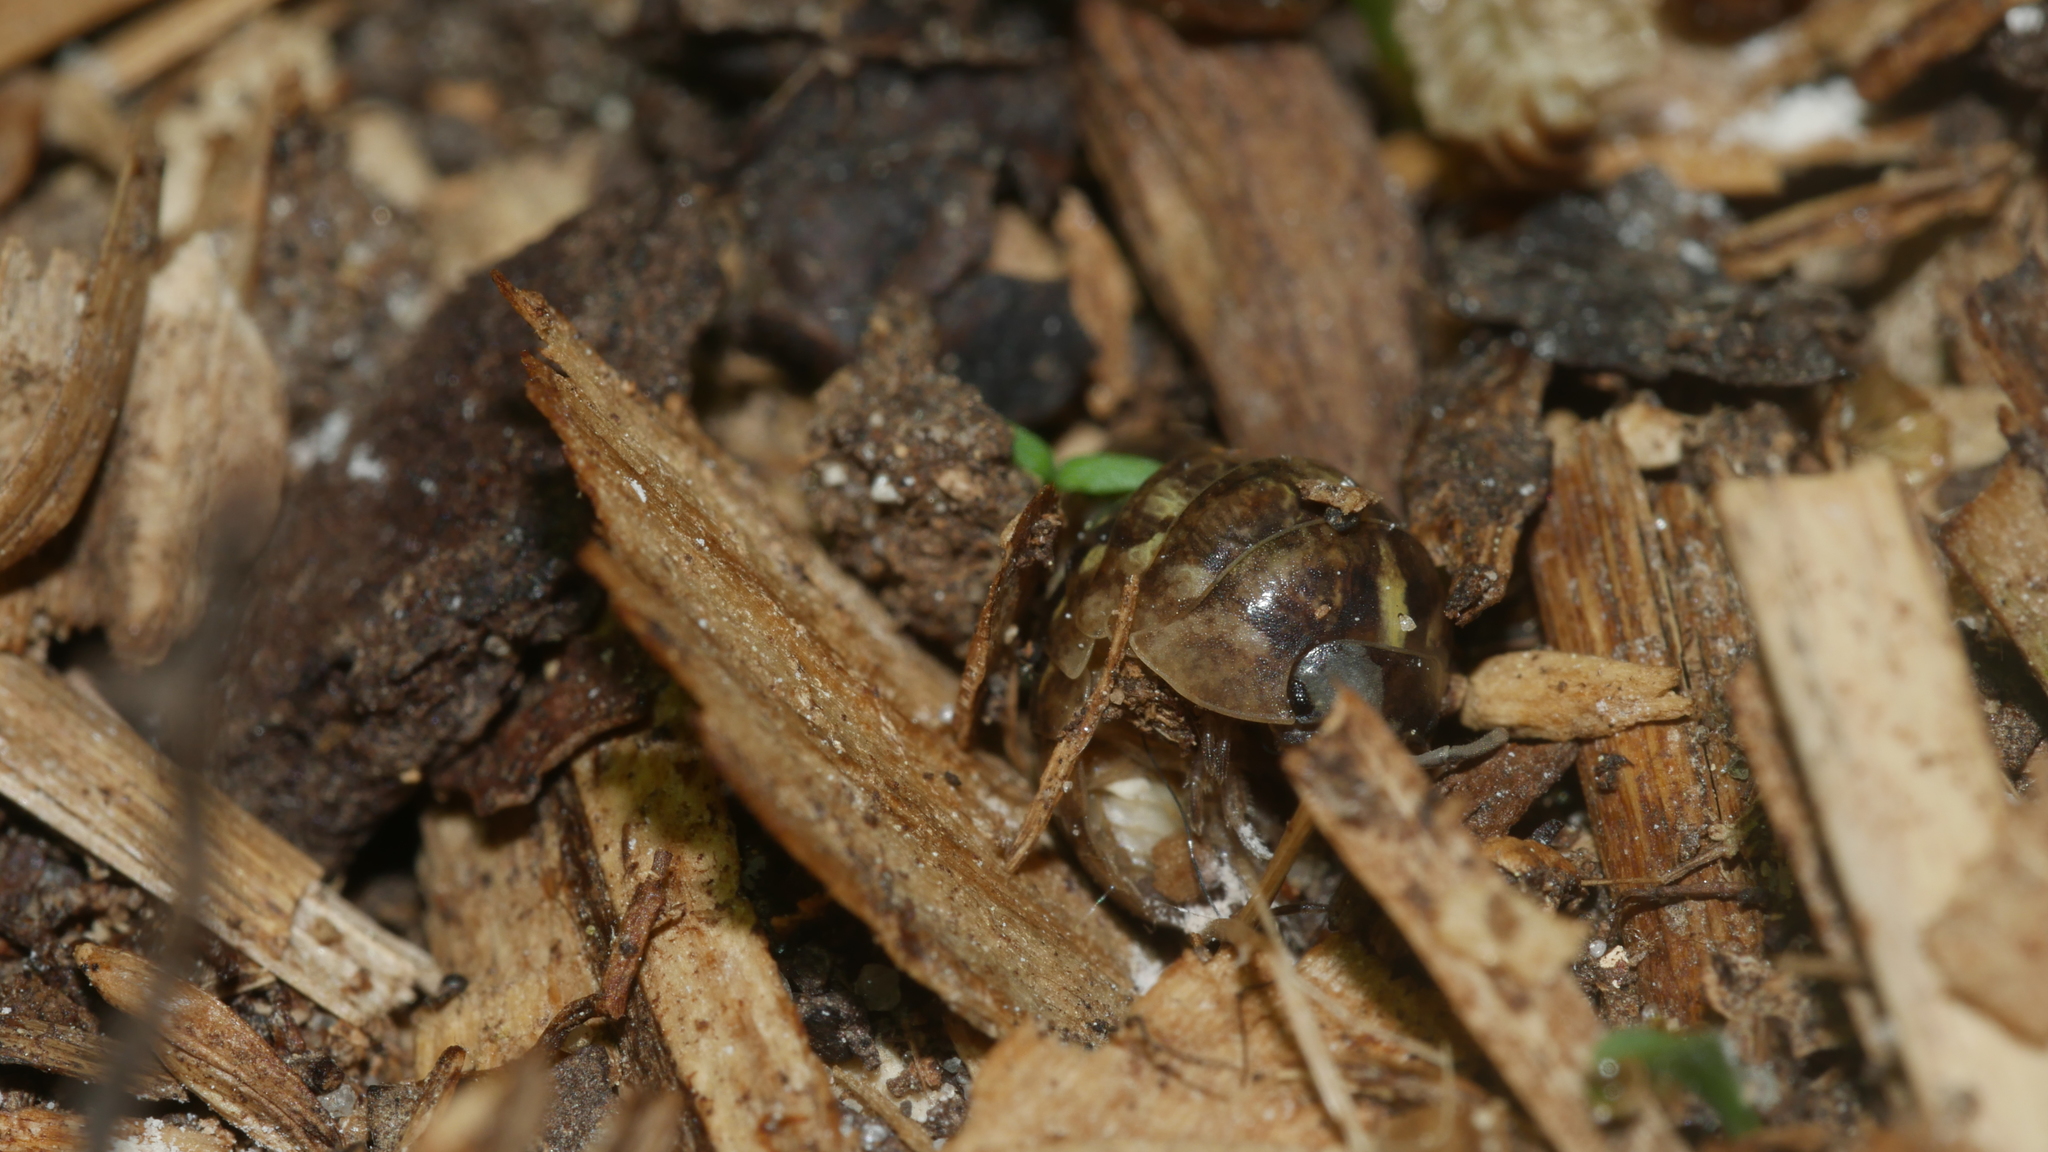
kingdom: Animalia
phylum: Arthropoda
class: Malacostraca
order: Isopoda
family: Armadillidiidae
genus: Armadillidium
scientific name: Armadillidium vulgare
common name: Common pill woodlouse
